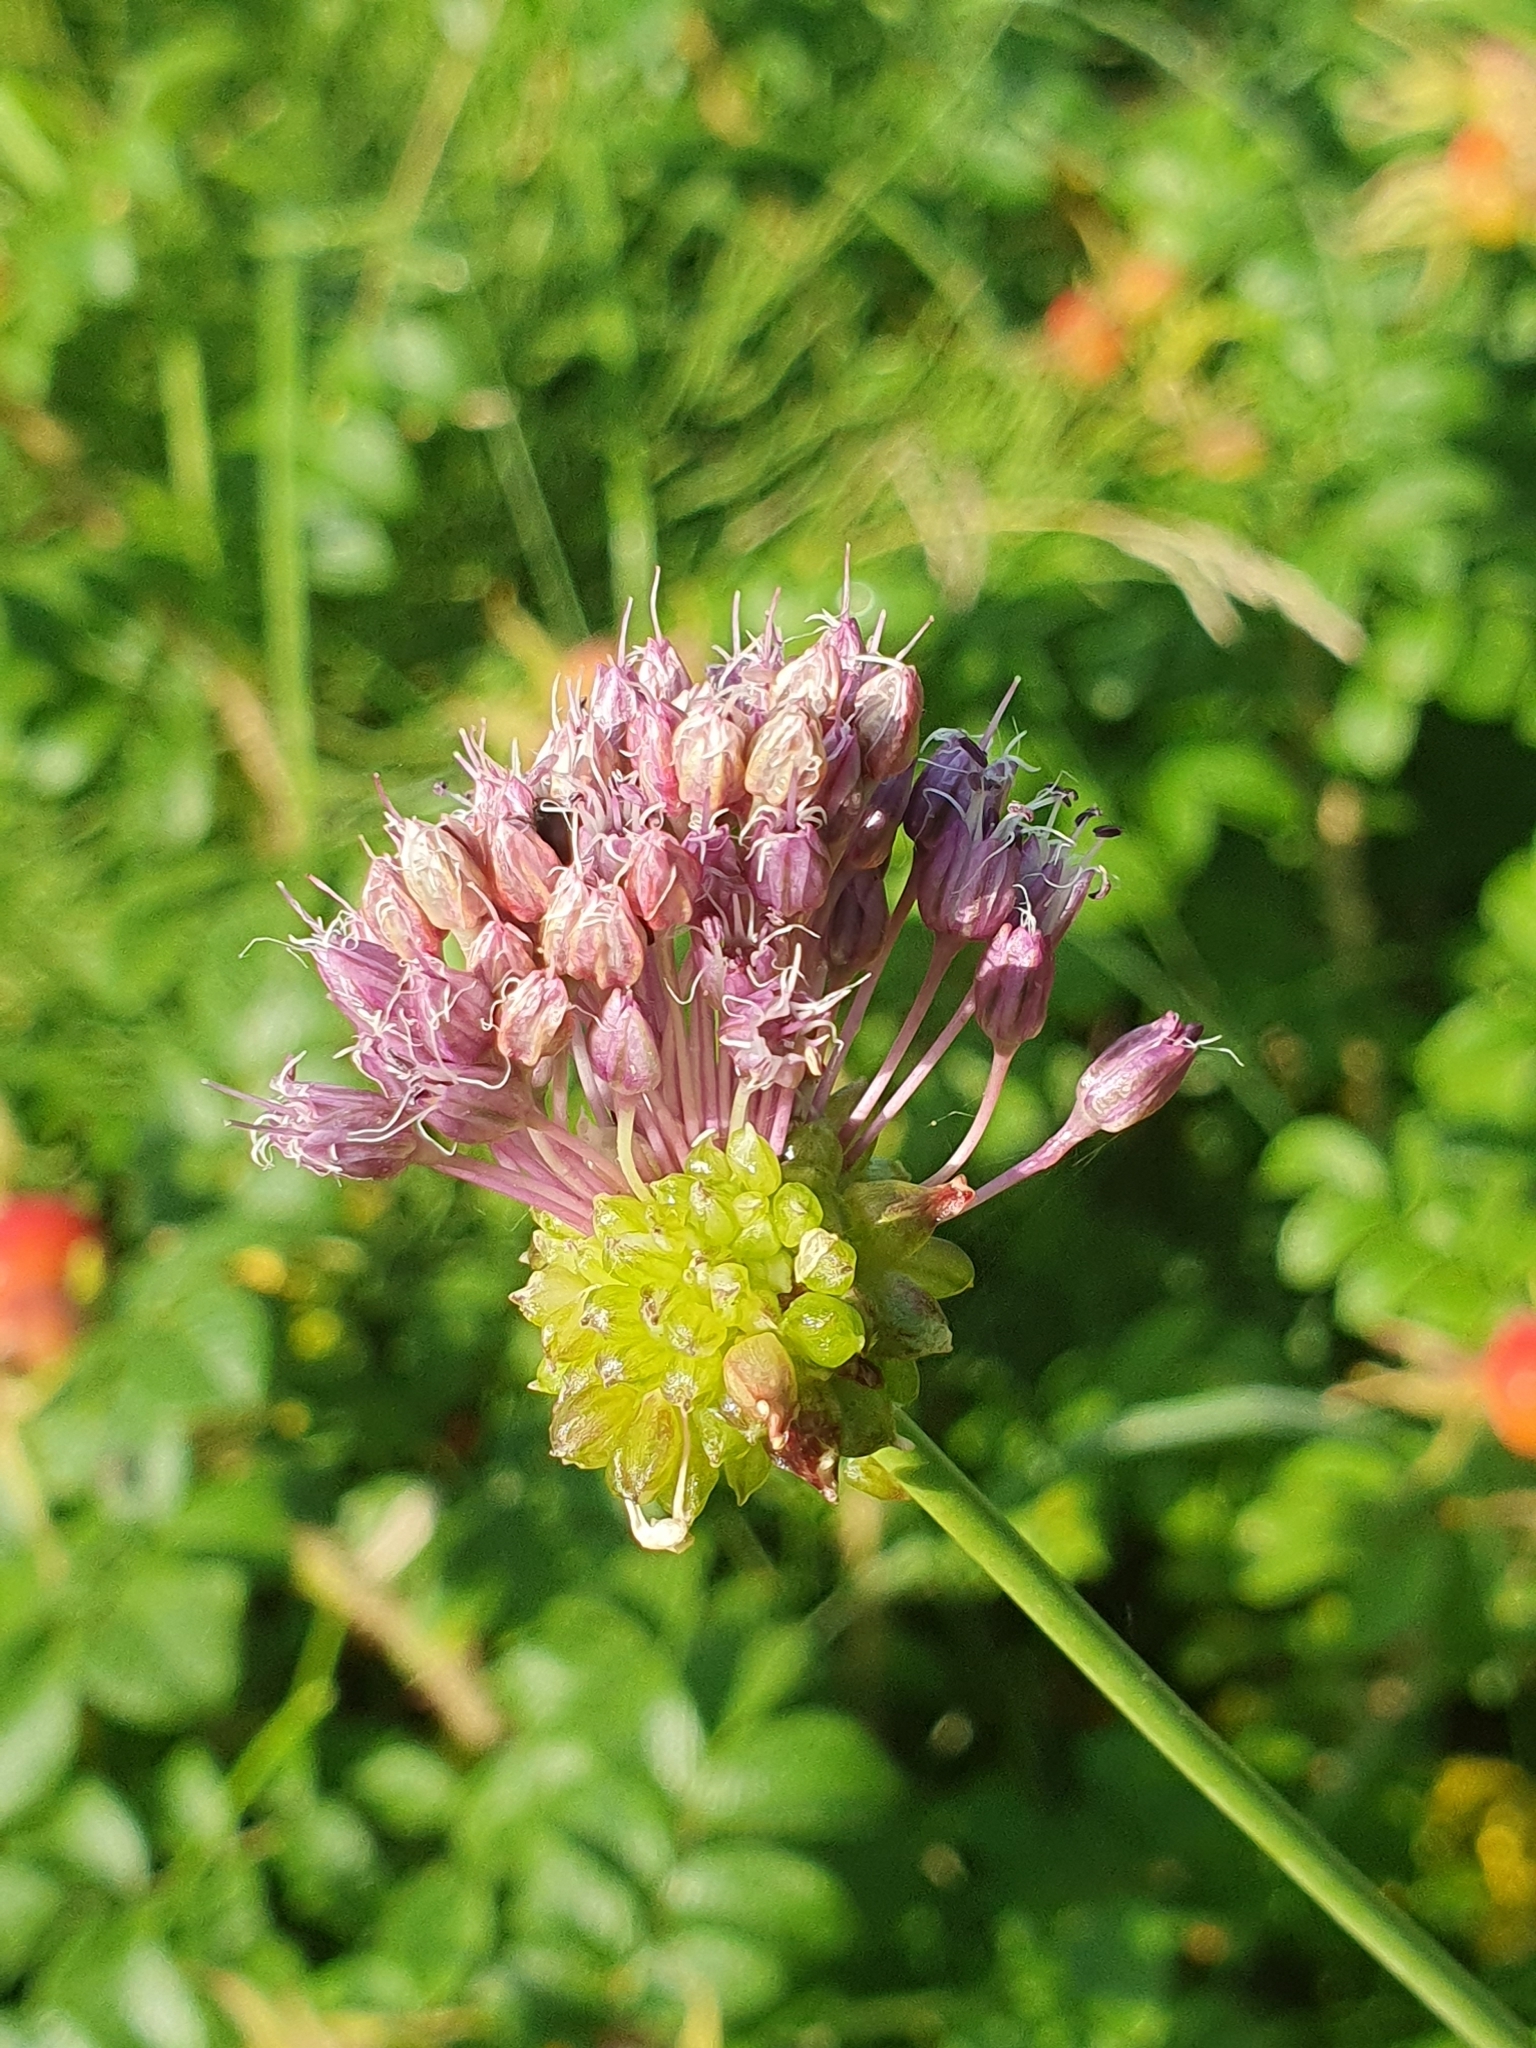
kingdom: Plantae
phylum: Tracheophyta
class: Liliopsida
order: Asparagales
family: Amaryllidaceae
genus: Allium
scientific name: Allium vineale
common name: Crow garlic
